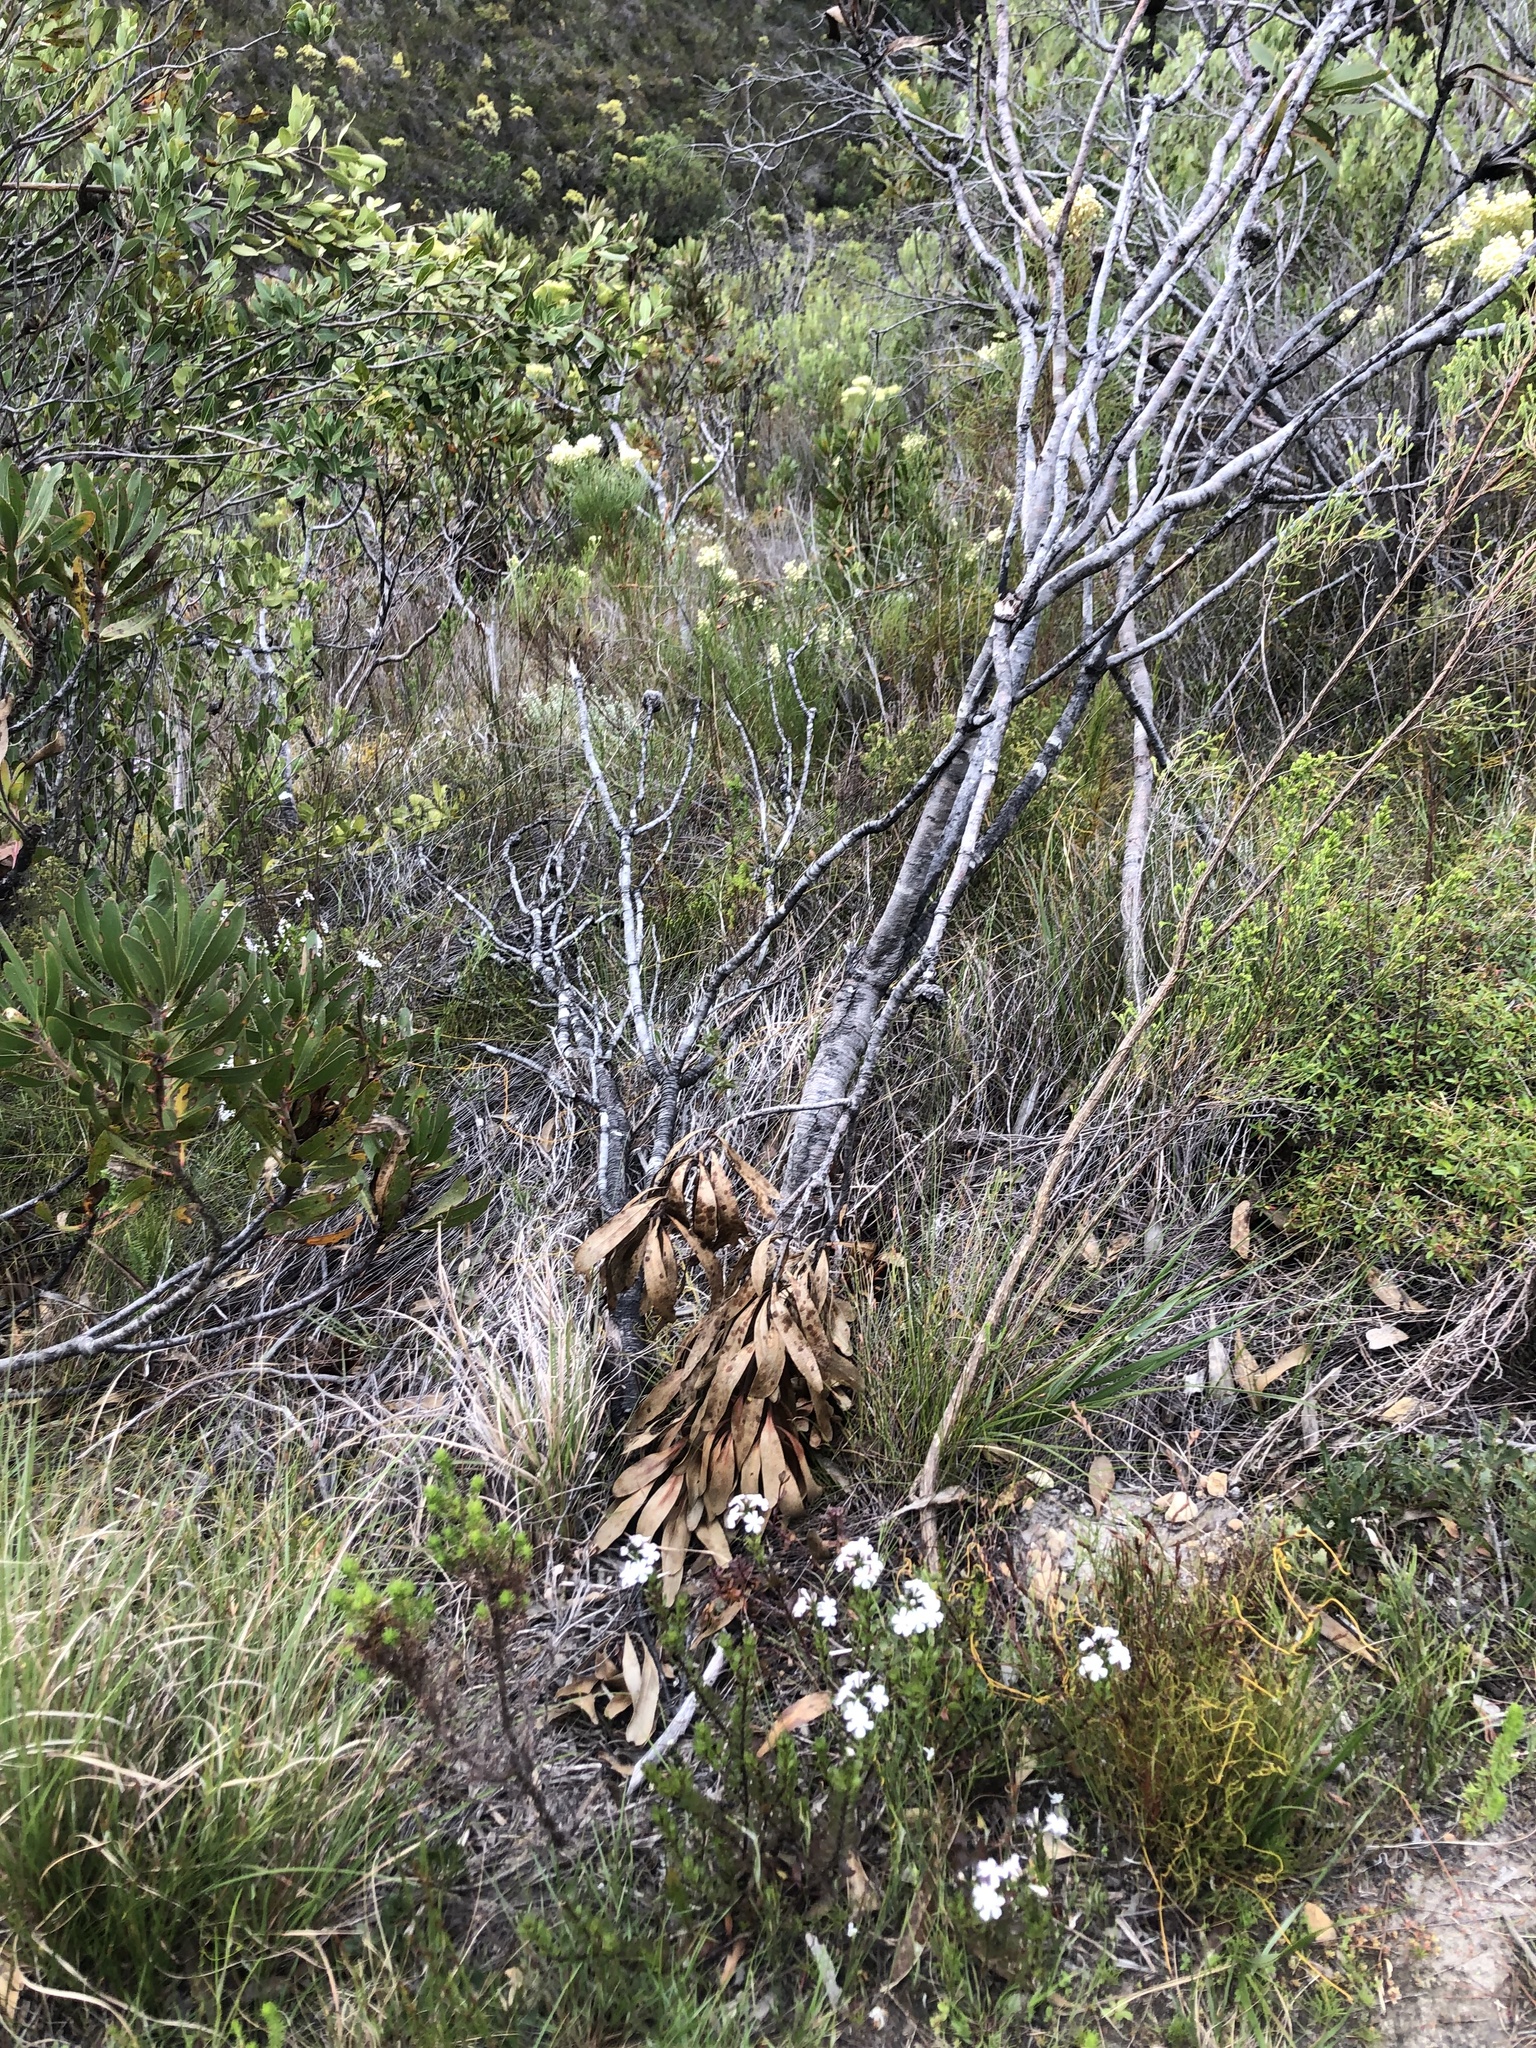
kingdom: Plantae
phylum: Tracheophyta
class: Magnoliopsida
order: Lamiales
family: Verbenaceae
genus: Chascanum
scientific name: Chascanum cernuum
